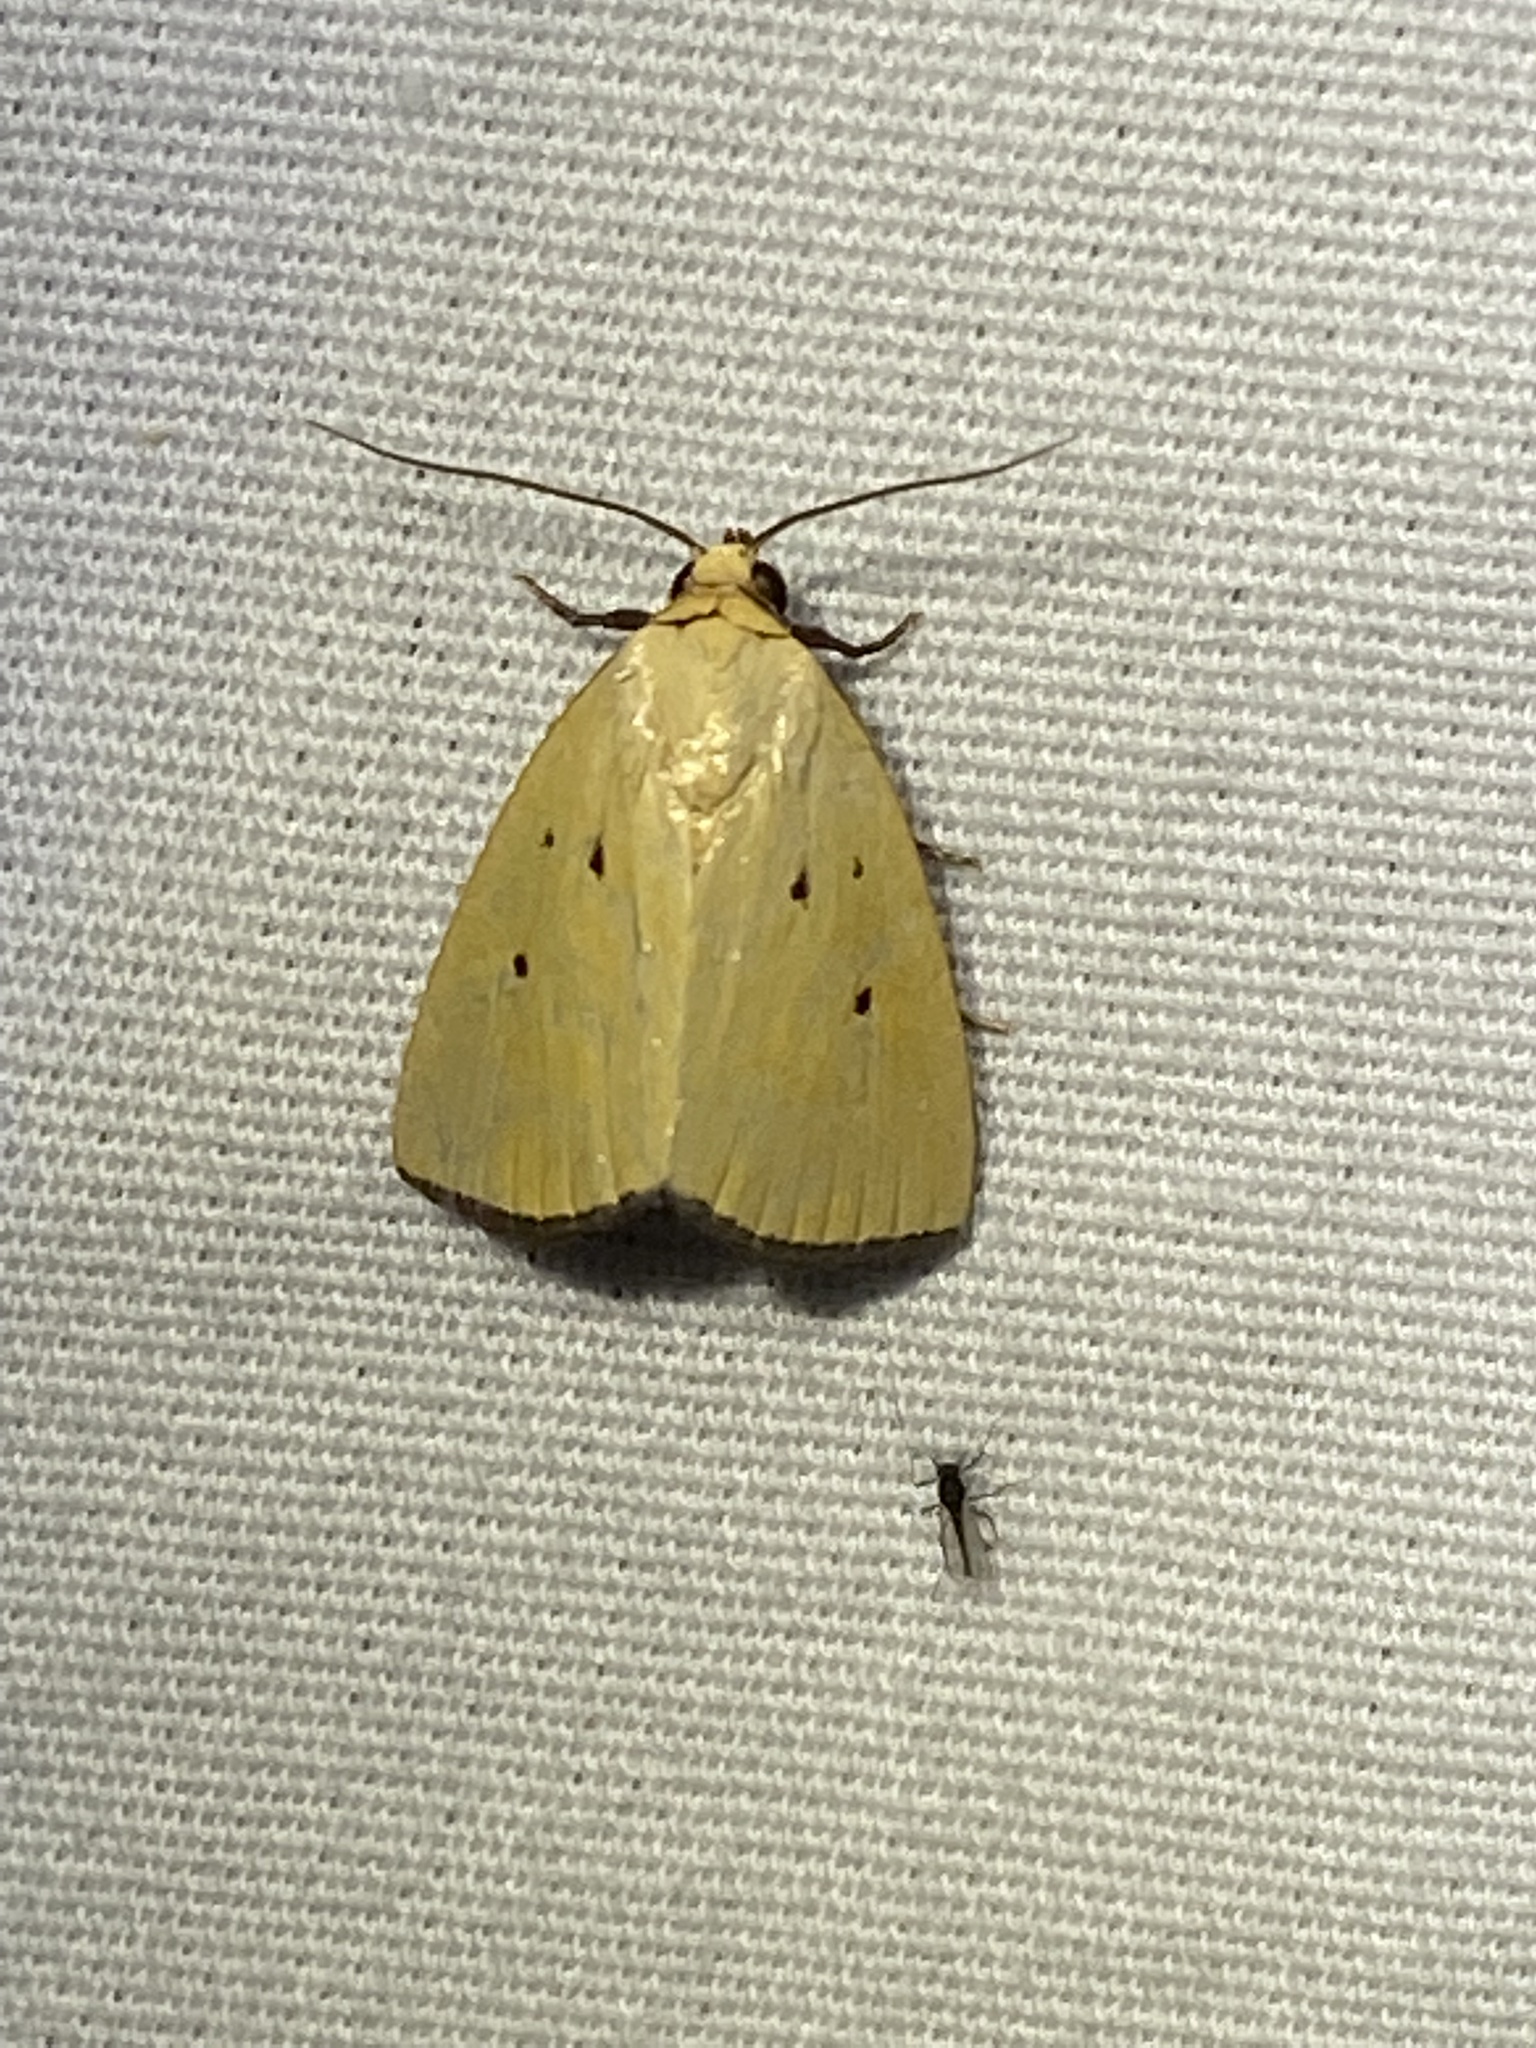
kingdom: Animalia
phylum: Arthropoda
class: Insecta
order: Lepidoptera
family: Noctuidae
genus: Marimatha
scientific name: Marimatha nigrofimbria
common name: Black-bordered lemon moth
